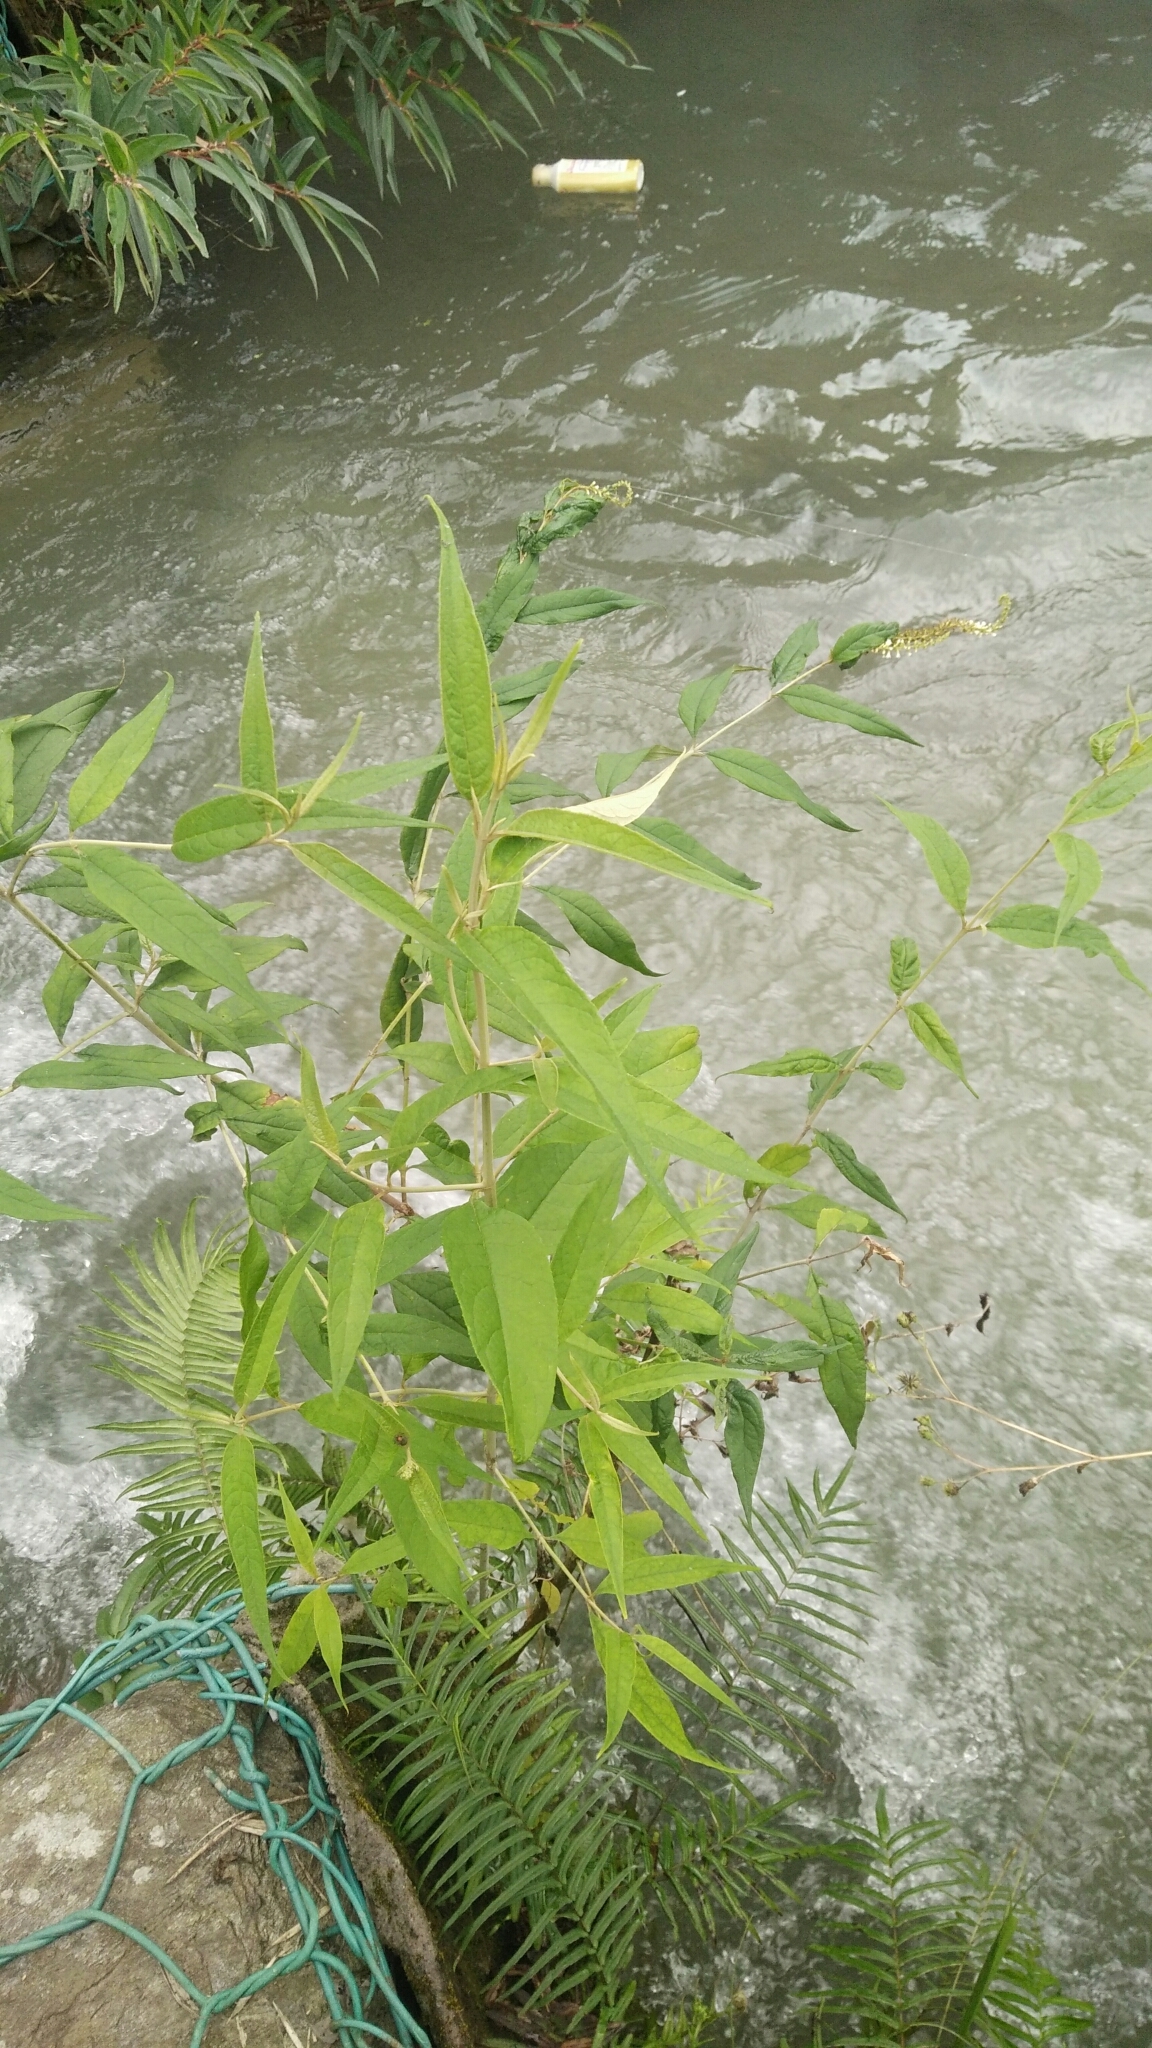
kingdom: Plantae
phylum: Tracheophyta
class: Magnoliopsida
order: Lamiales
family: Scrophulariaceae
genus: Buddleja
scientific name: Buddleja asiatica
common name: Dog tail
